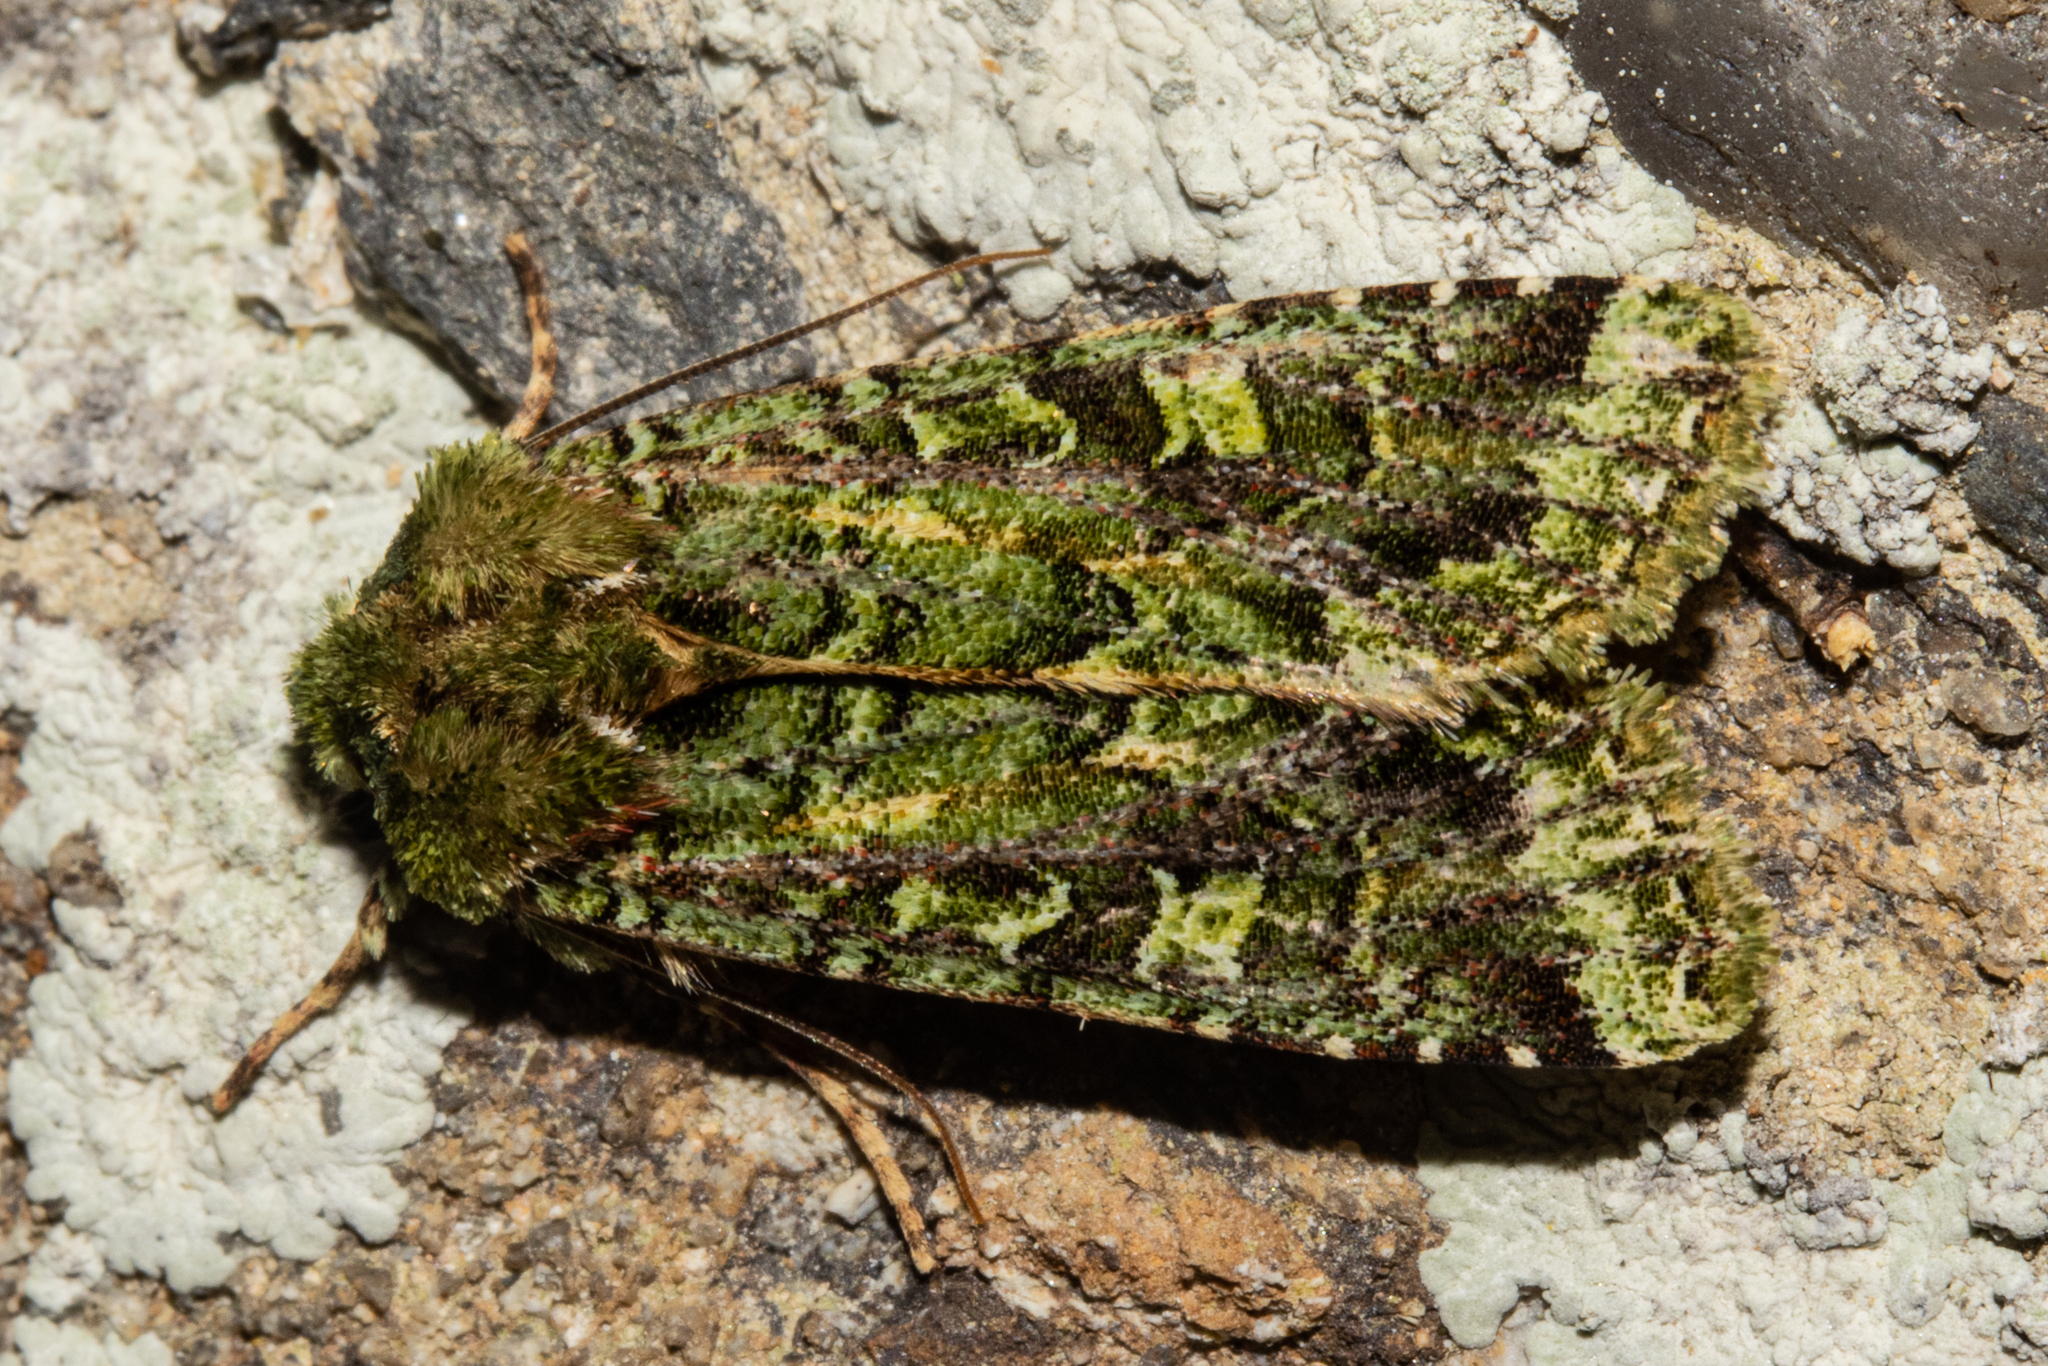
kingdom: Animalia
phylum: Arthropoda
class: Insecta
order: Lepidoptera
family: Noctuidae
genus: Feredayia
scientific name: Feredayia grammosa
